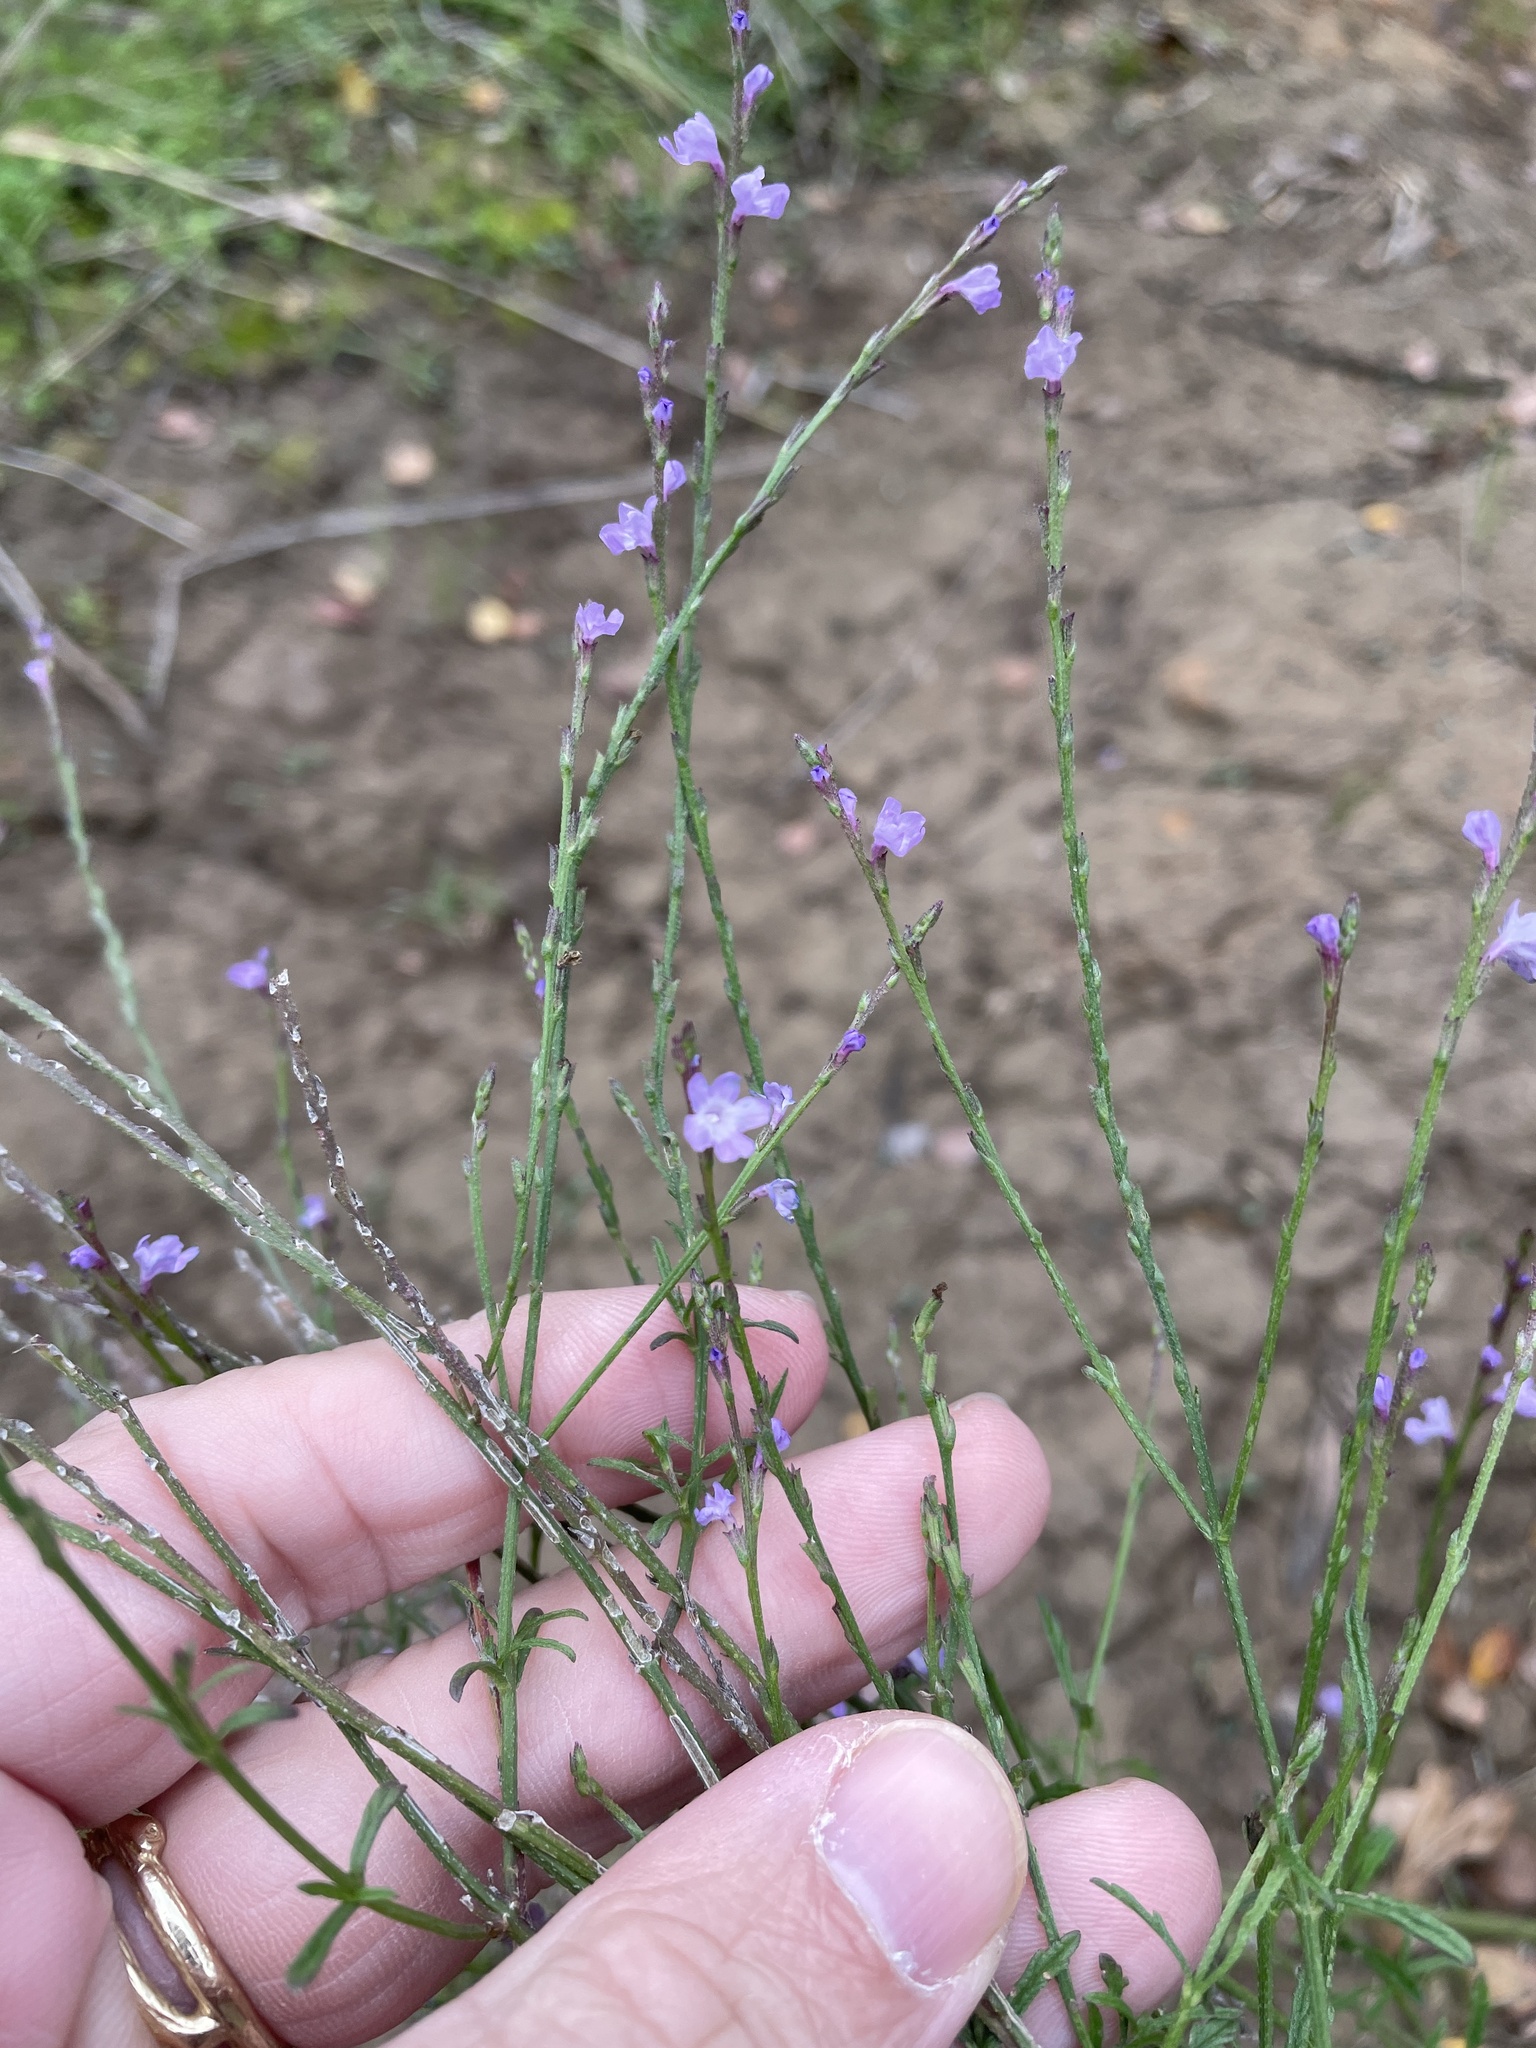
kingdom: Plantae
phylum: Tracheophyta
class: Magnoliopsida
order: Lamiales
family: Verbenaceae
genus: Verbena
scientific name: Verbena halei
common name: Texas vervain
